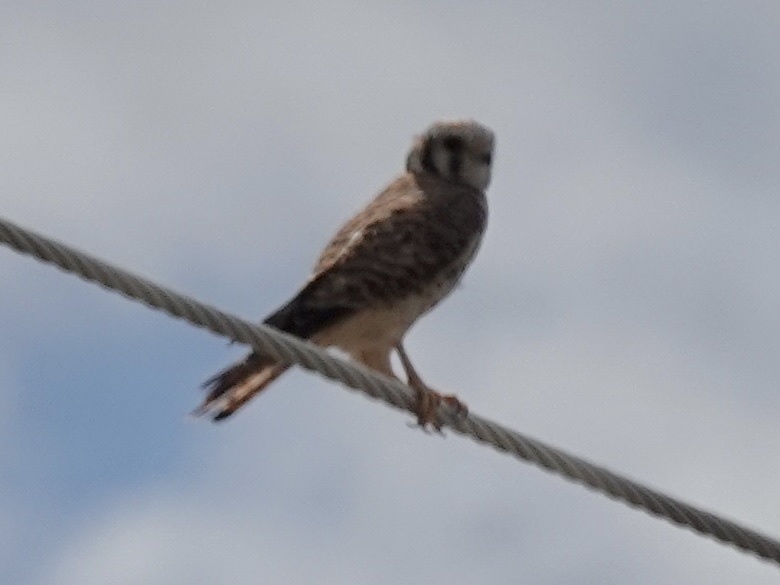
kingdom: Animalia
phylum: Chordata
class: Aves
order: Falconiformes
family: Falconidae
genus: Falco
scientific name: Falco sparverius
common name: American kestrel
